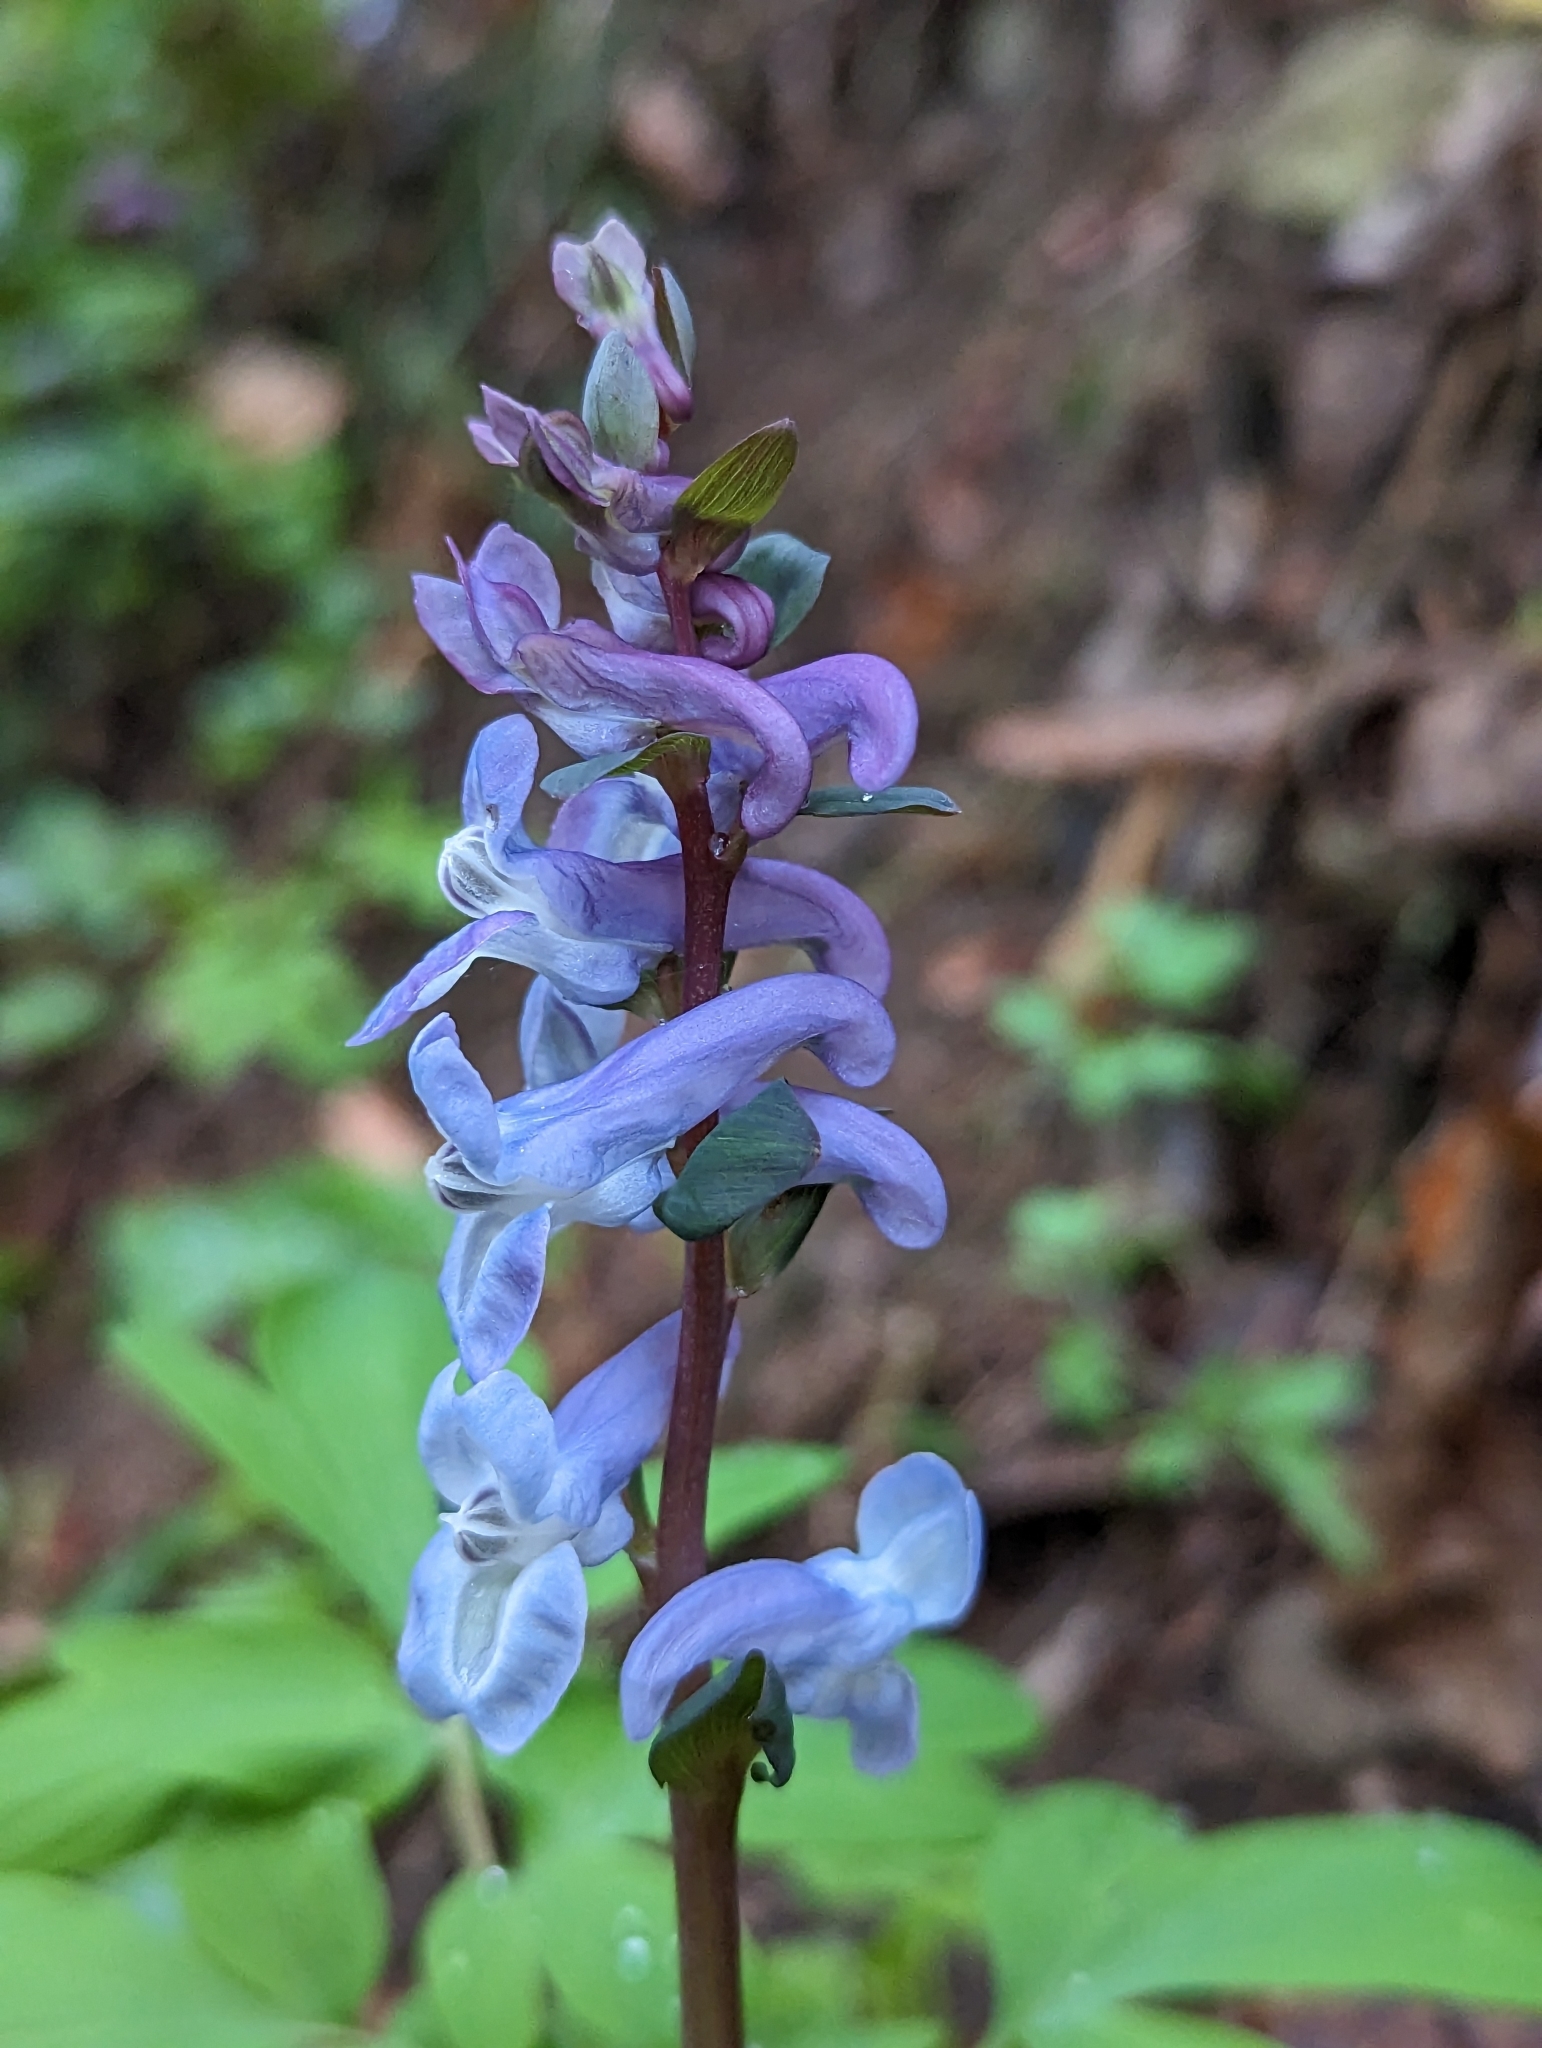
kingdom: Plantae
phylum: Tracheophyta
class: Magnoliopsida
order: Ranunculales
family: Papaveraceae
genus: Corydalis
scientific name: Corydalis cava
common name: Hollowroot
